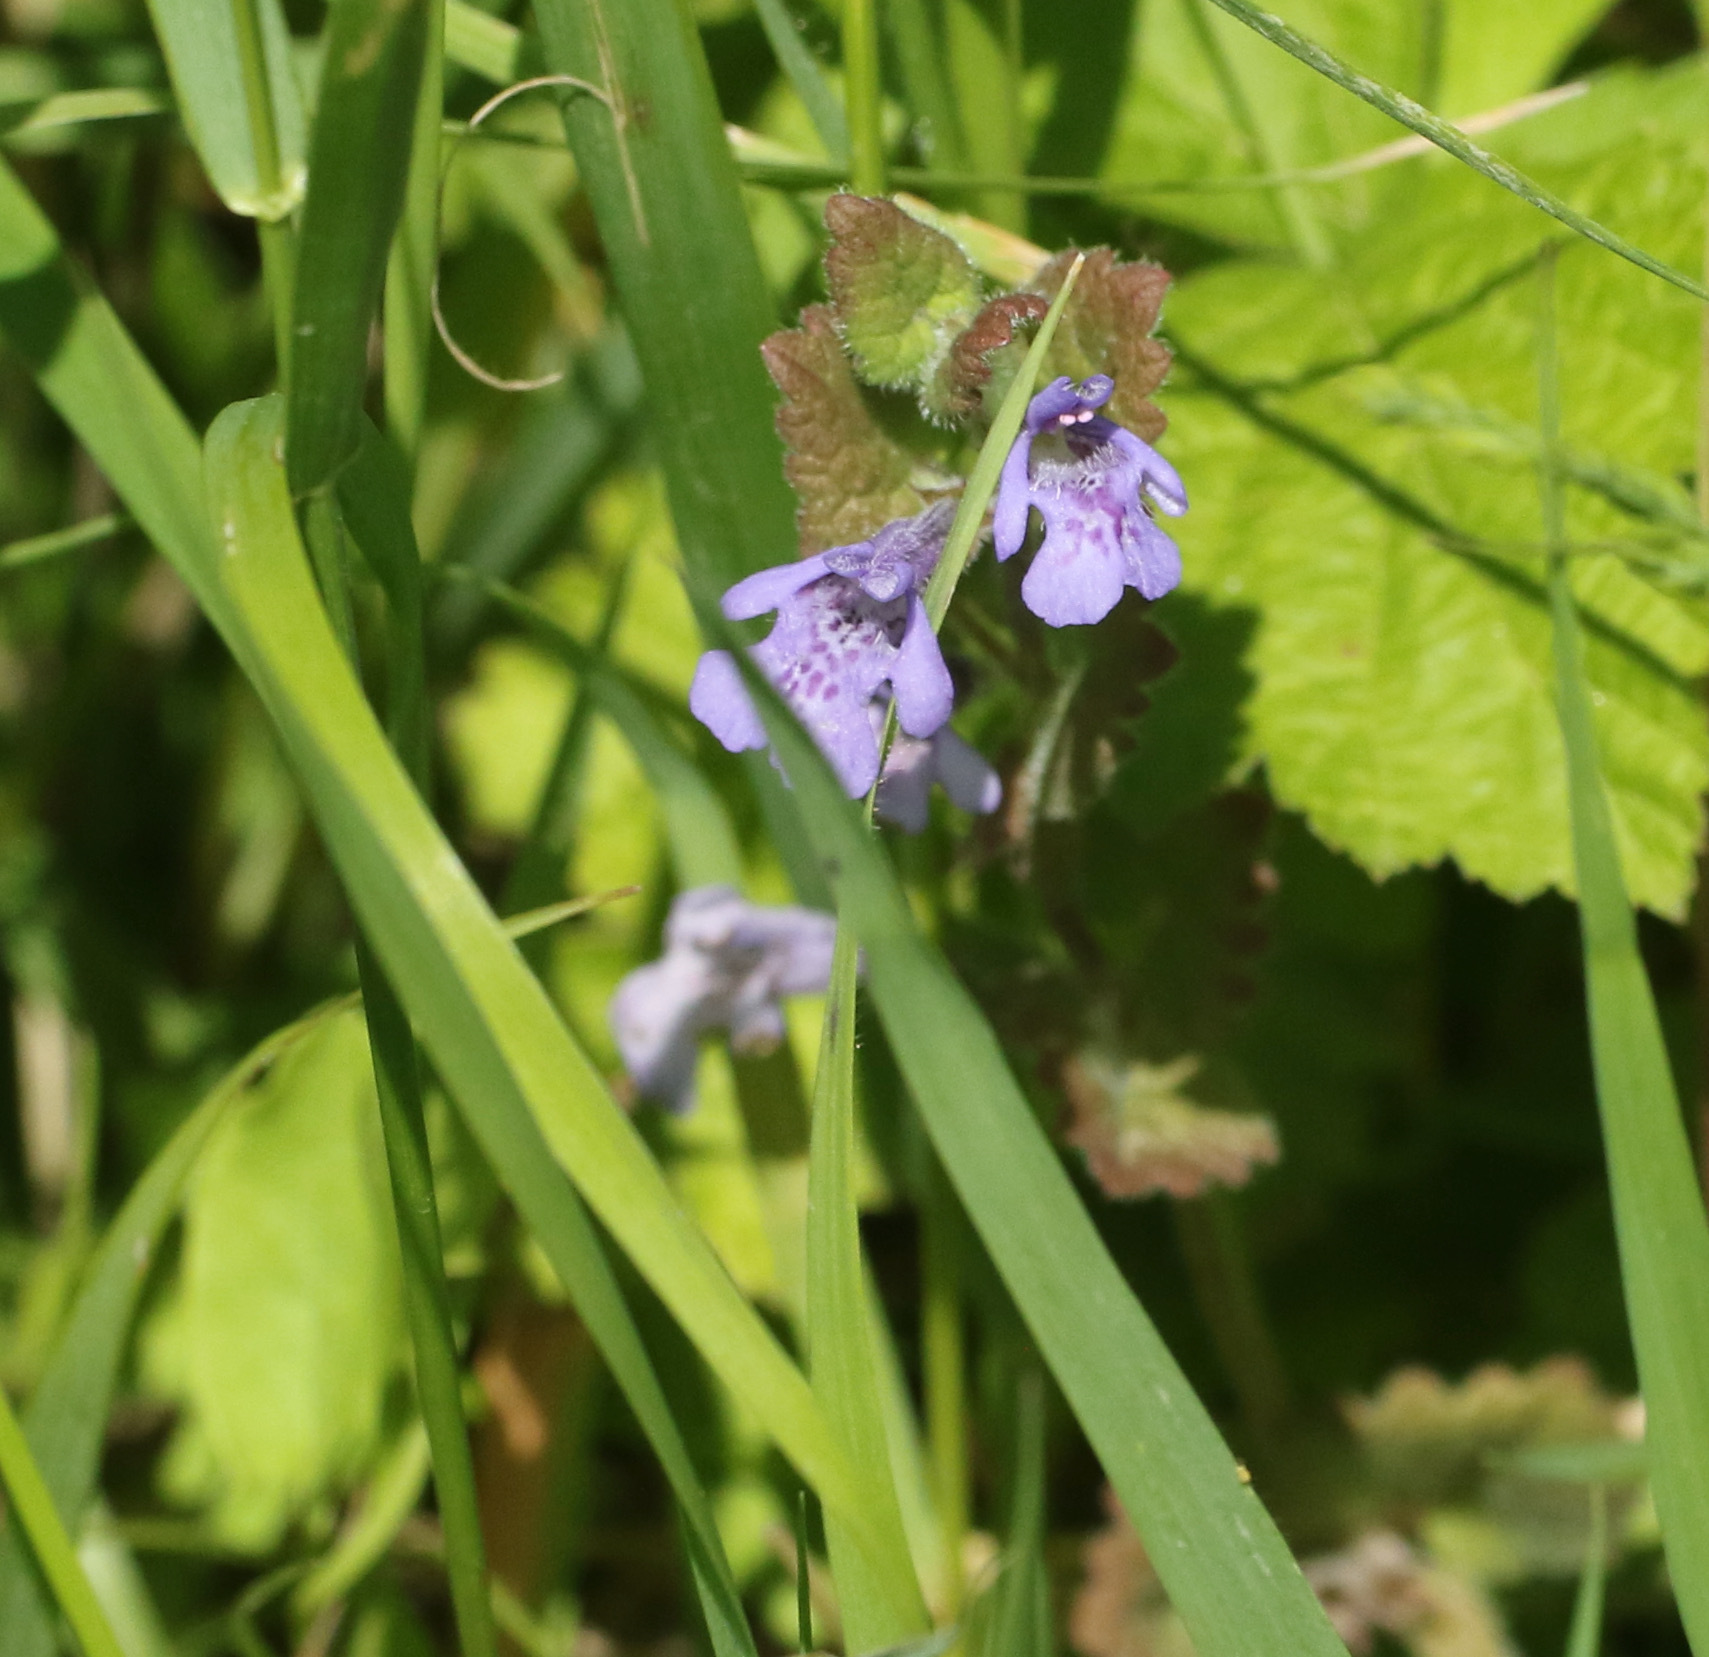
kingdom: Plantae
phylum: Tracheophyta
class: Magnoliopsida
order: Lamiales
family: Lamiaceae
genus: Glechoma
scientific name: Glechoma hederacea
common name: Ground ivy
